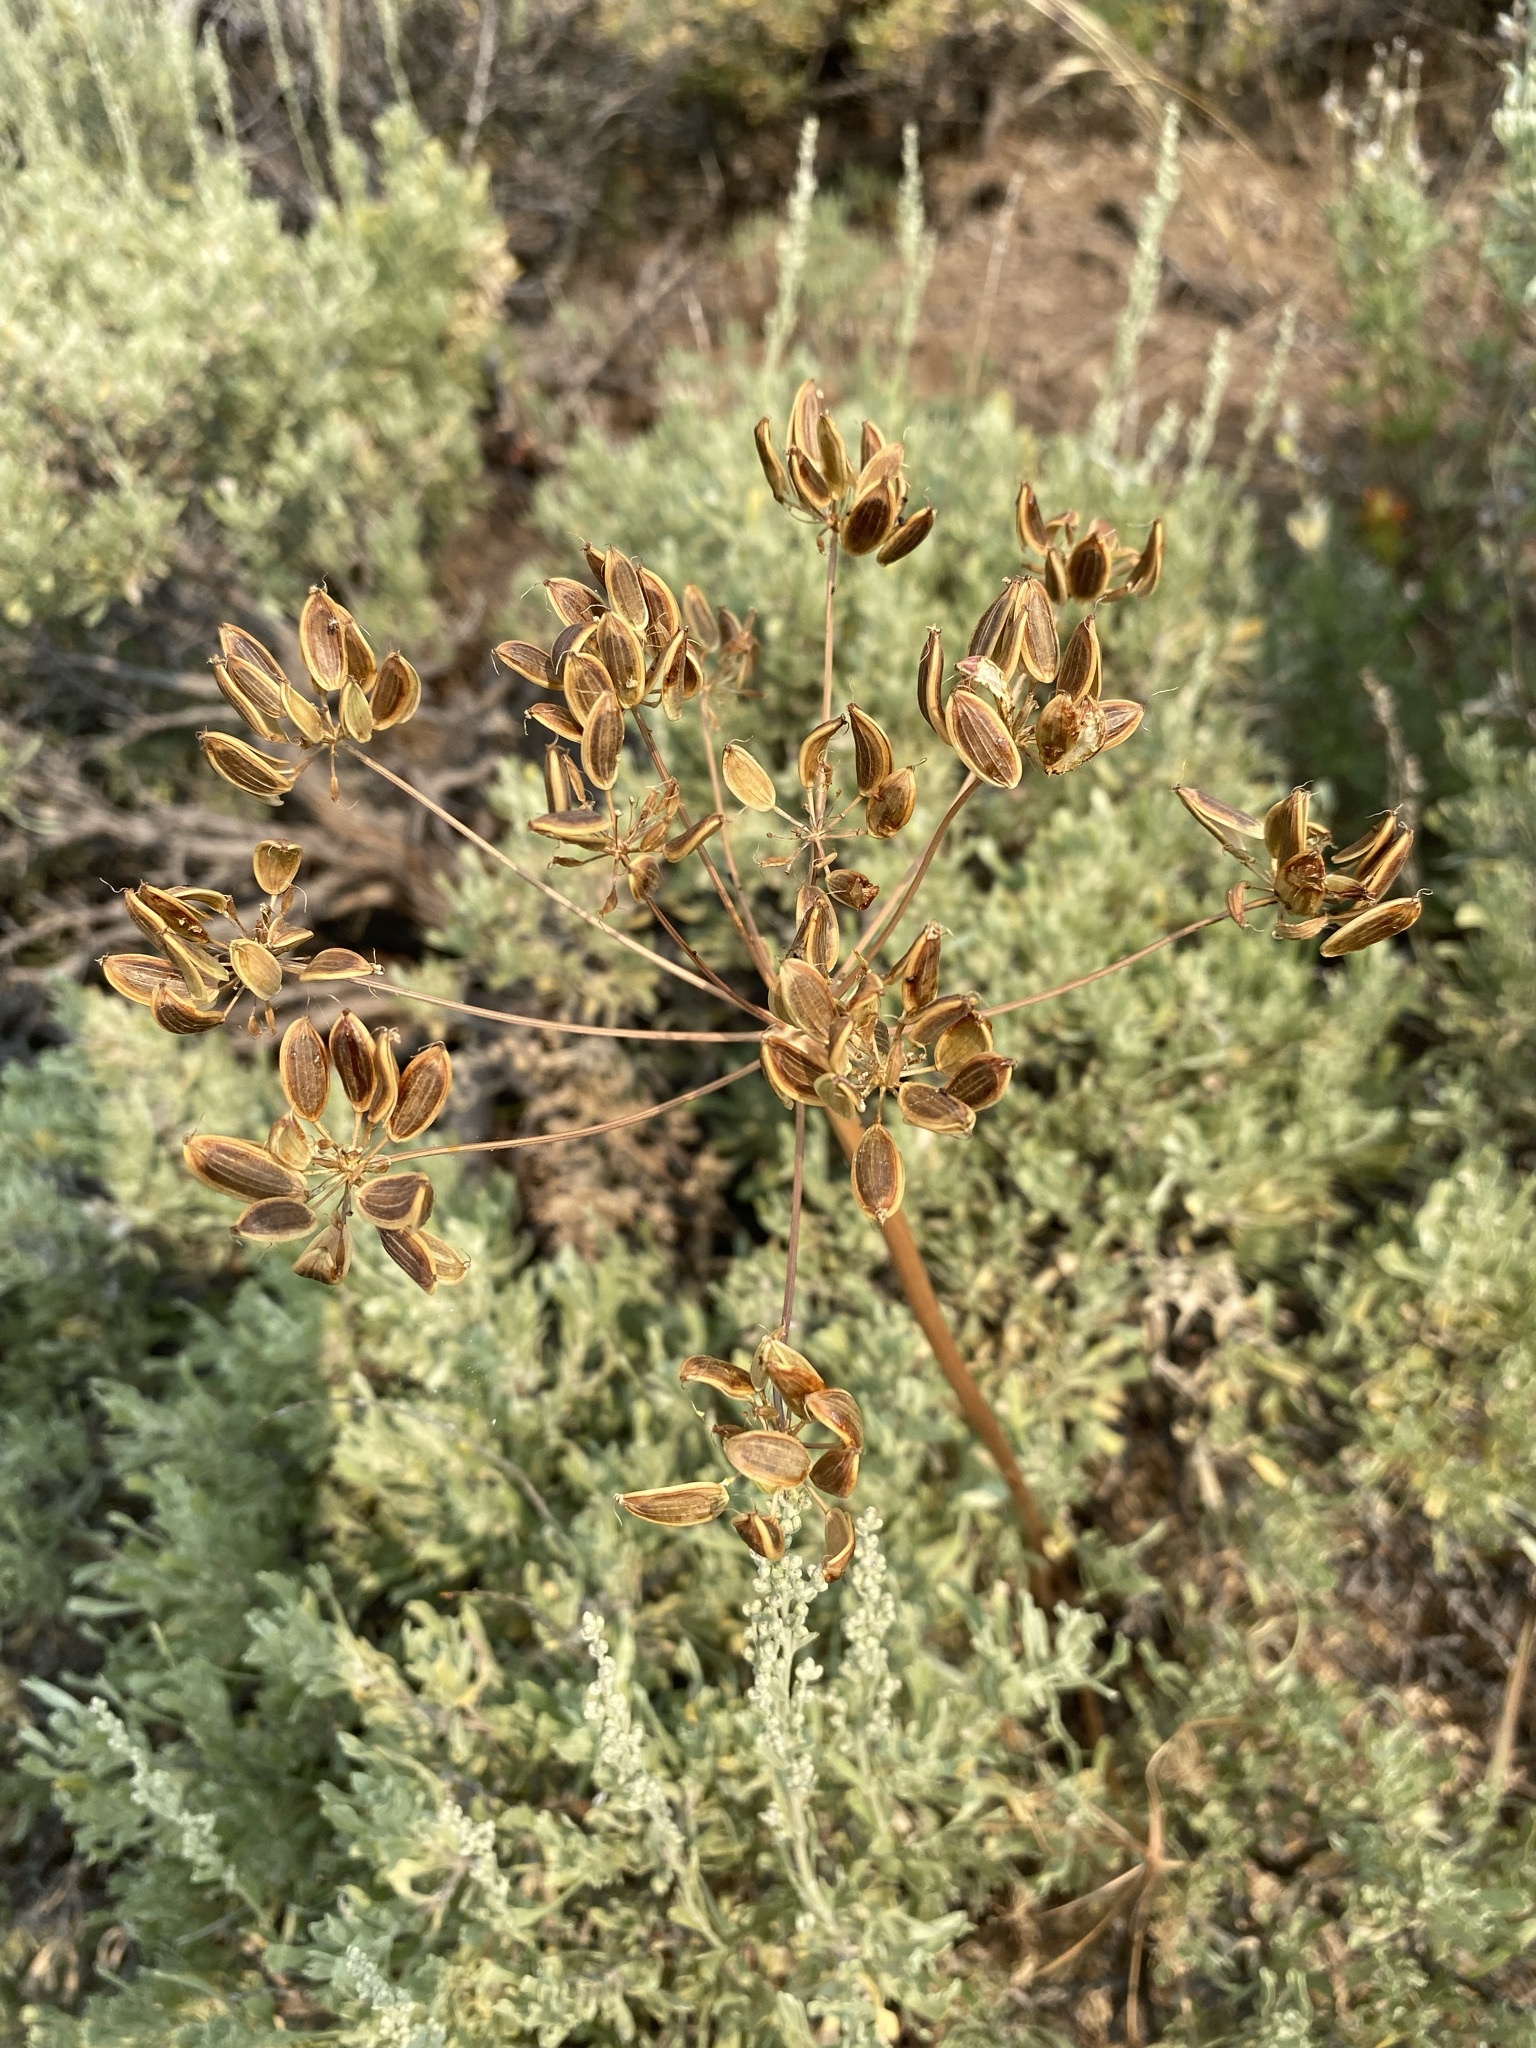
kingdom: Plantae
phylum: Tracheophyta
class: Magnoliopsida
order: Apiales
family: Apiaceae
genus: Lomatium
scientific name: Lomatium multifidum
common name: Carrot-leaved biscuitroot
